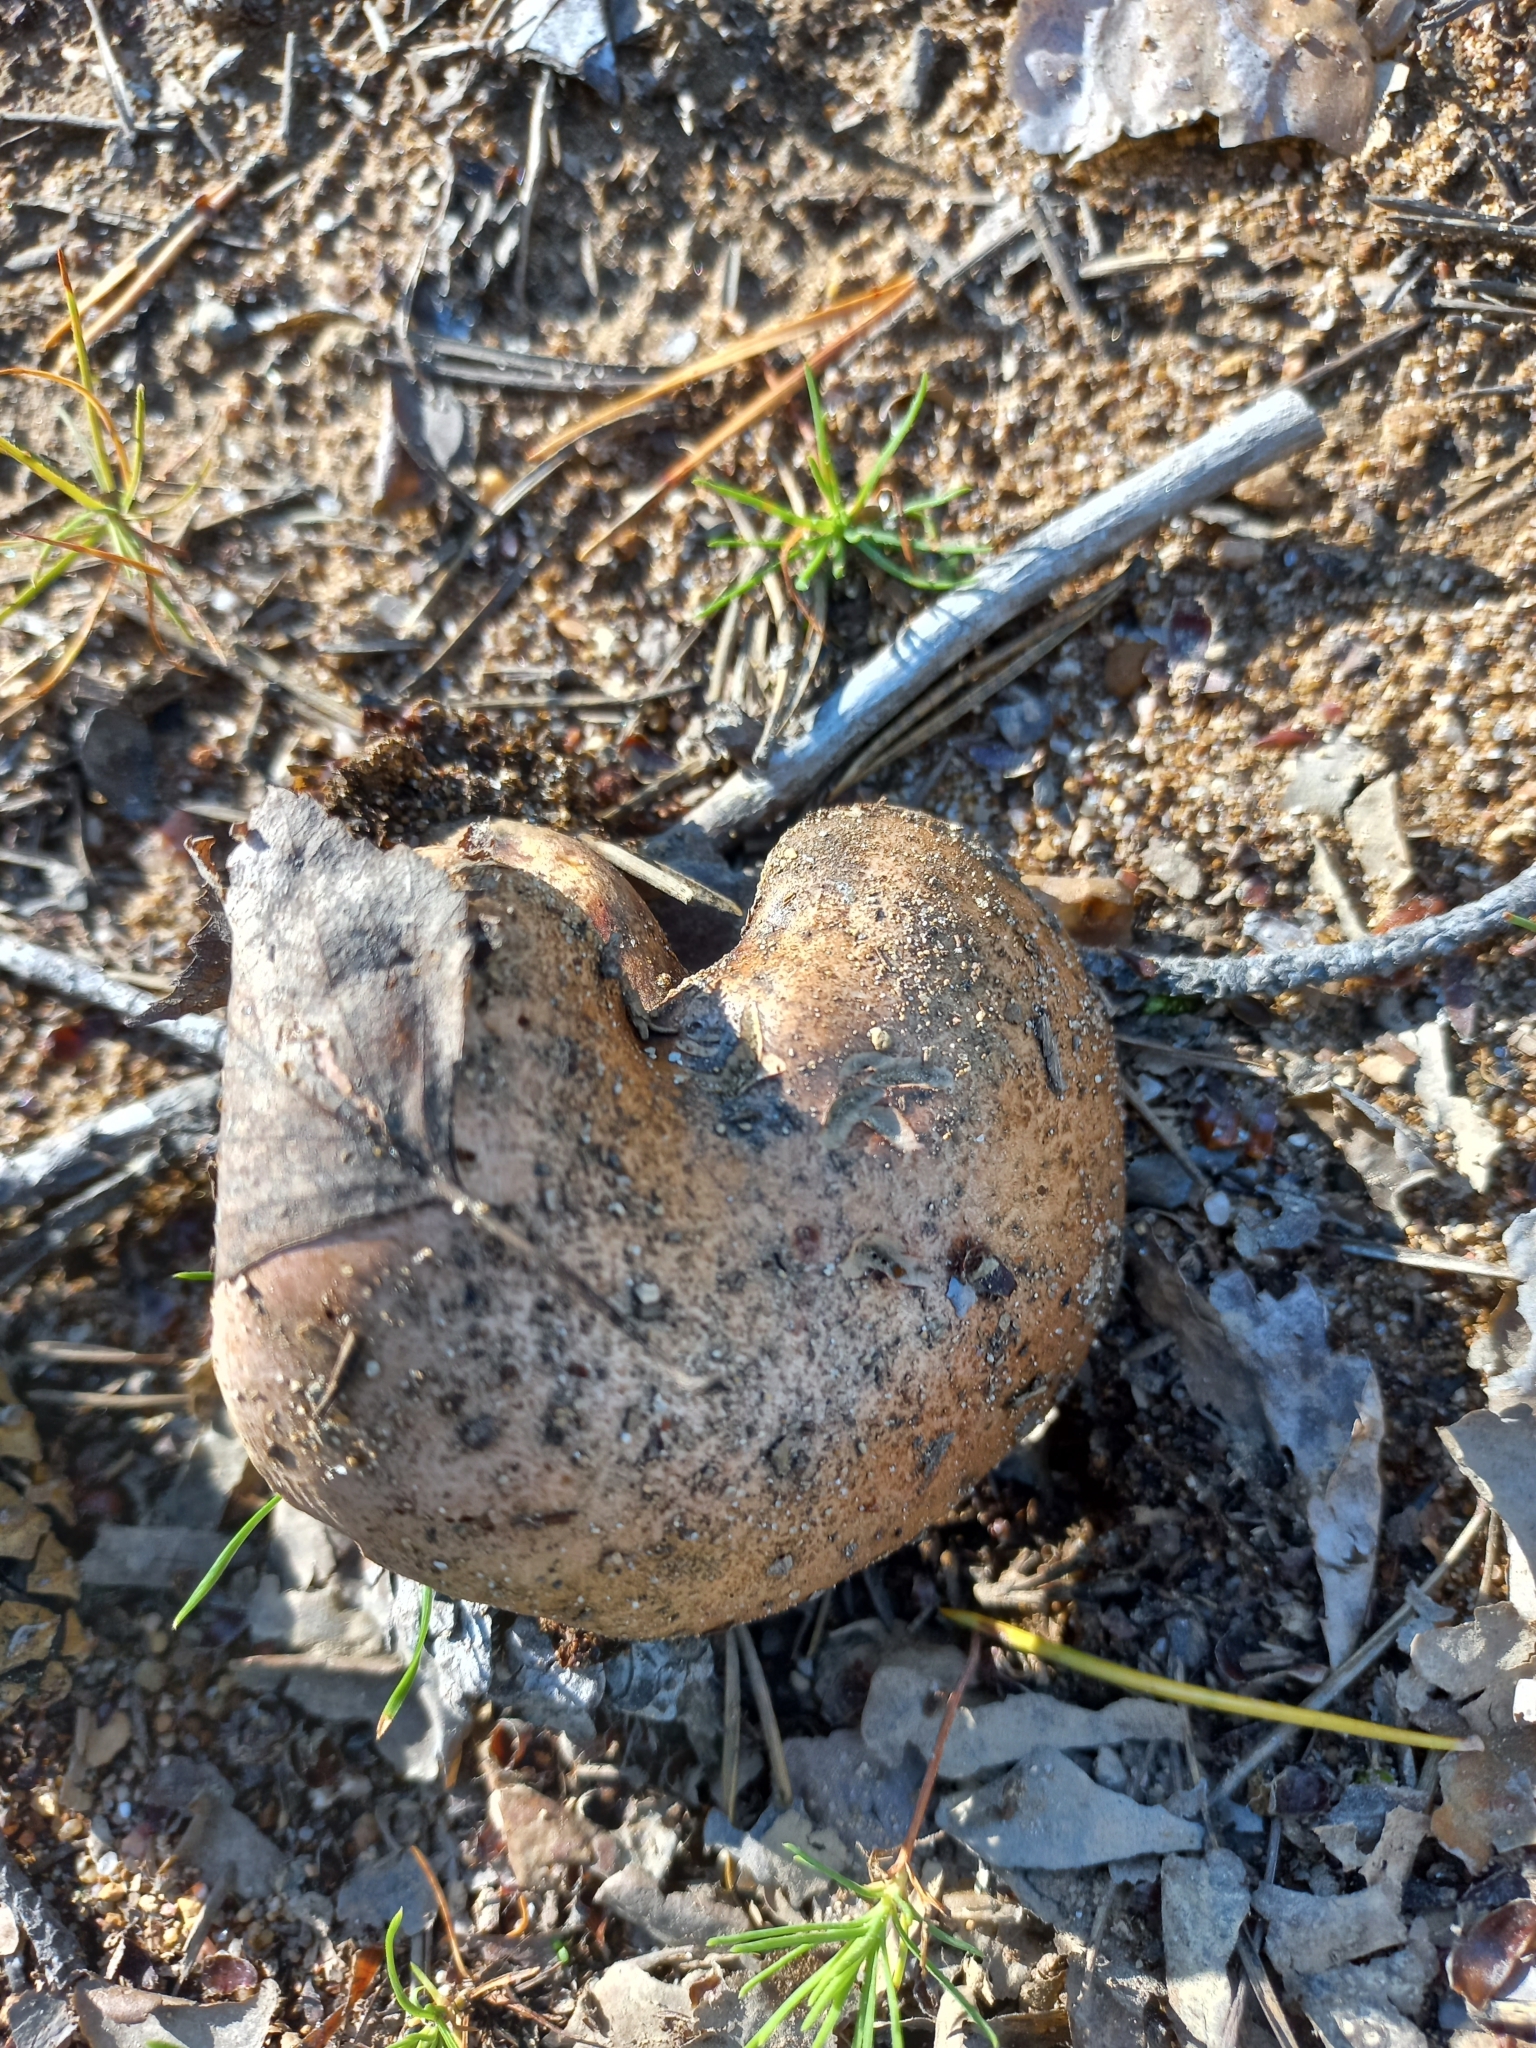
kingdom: Fungi
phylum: Basidiomycota
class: Agaricomycetes
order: Boletales
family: Suillaceae
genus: Suillus
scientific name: Suillus bovinus
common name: Bovine bolete
